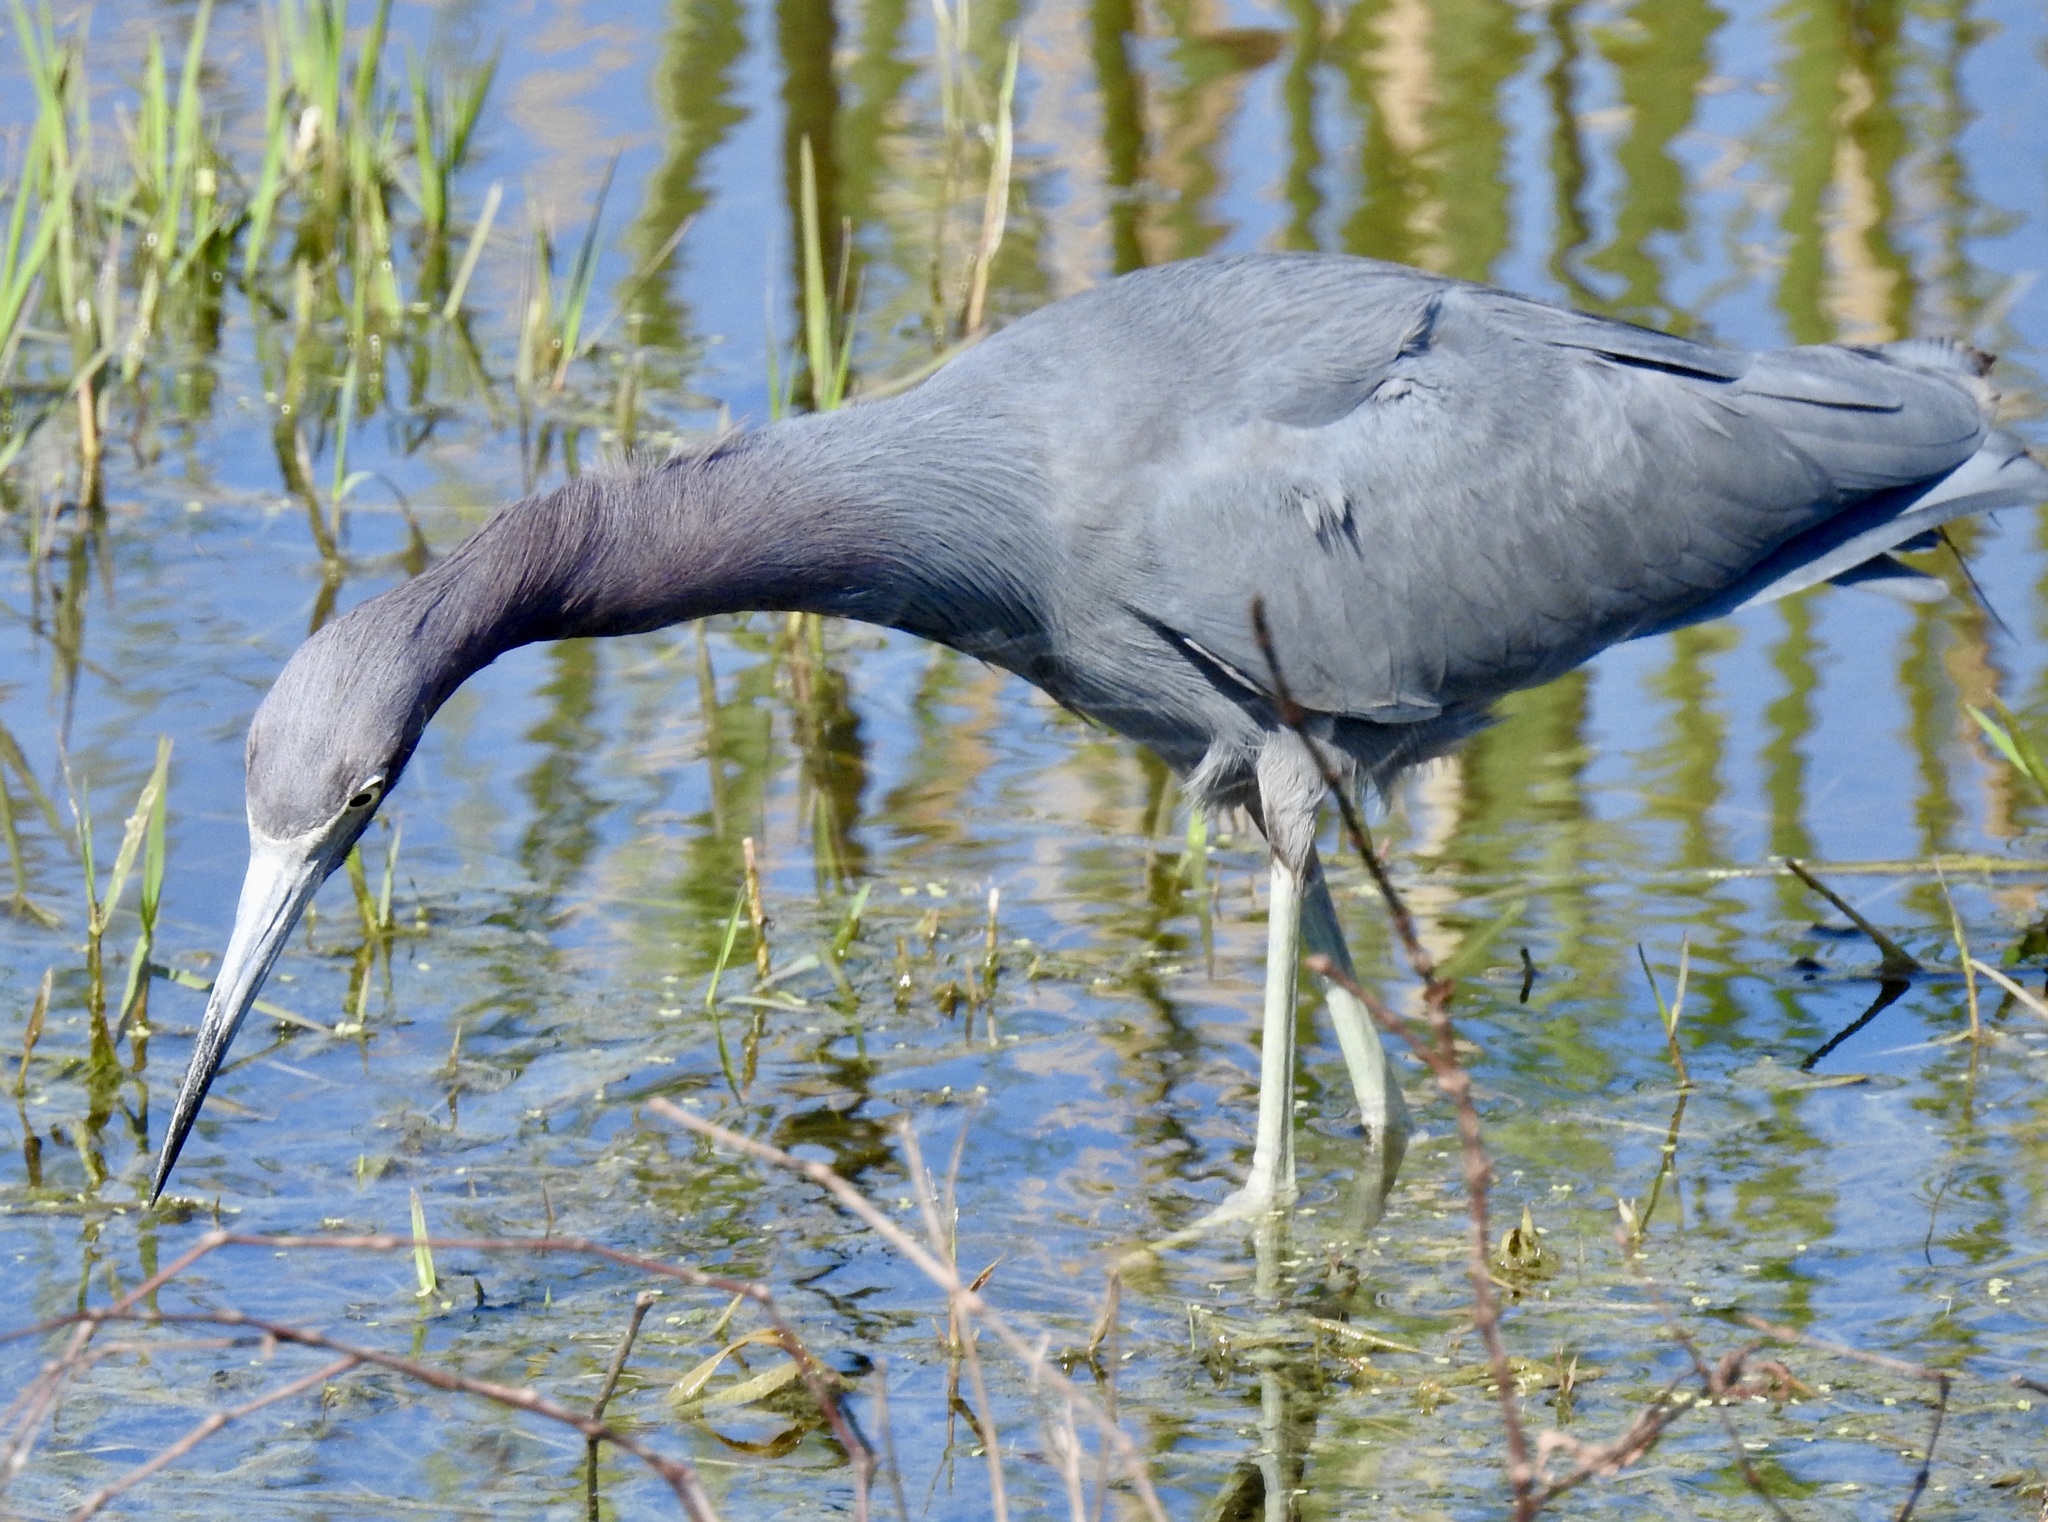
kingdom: Animalia
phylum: Chordata
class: Aves
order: Pelecaniformes
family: Ardeidae
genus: Egretta
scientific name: Egretta caerulea
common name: Little blue heron
